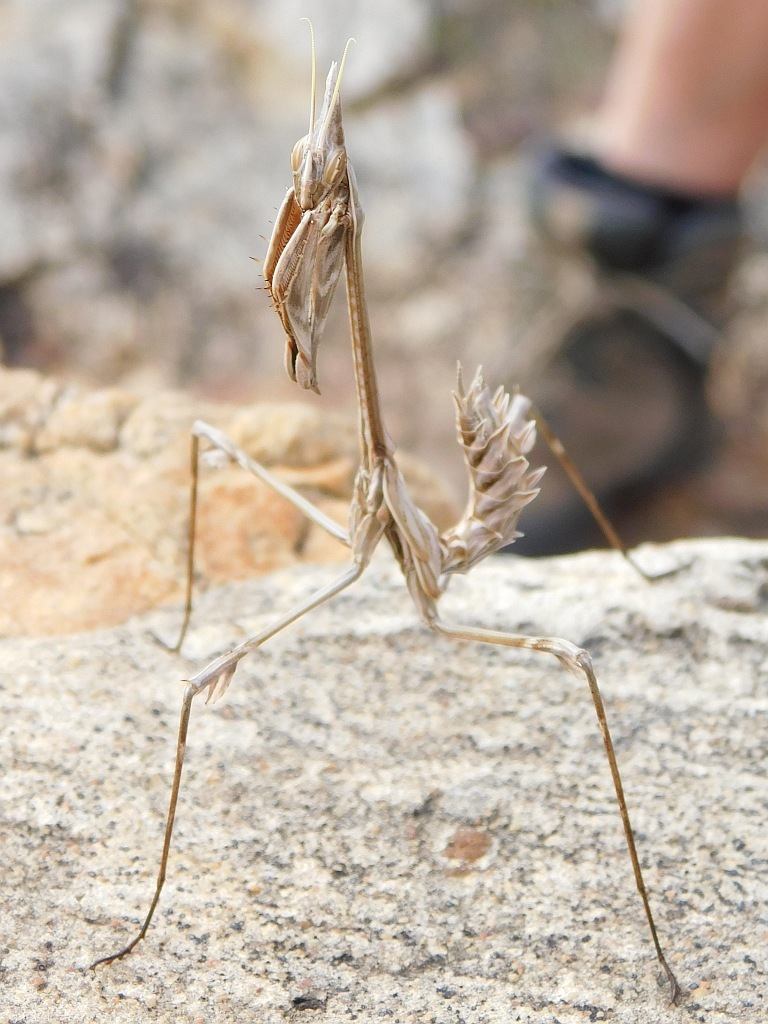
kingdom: Animalia
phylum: Arthropoda
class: Insecta
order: Mantodea
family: Empusidae
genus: Hemiempusa
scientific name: Hemiempusa capensis
